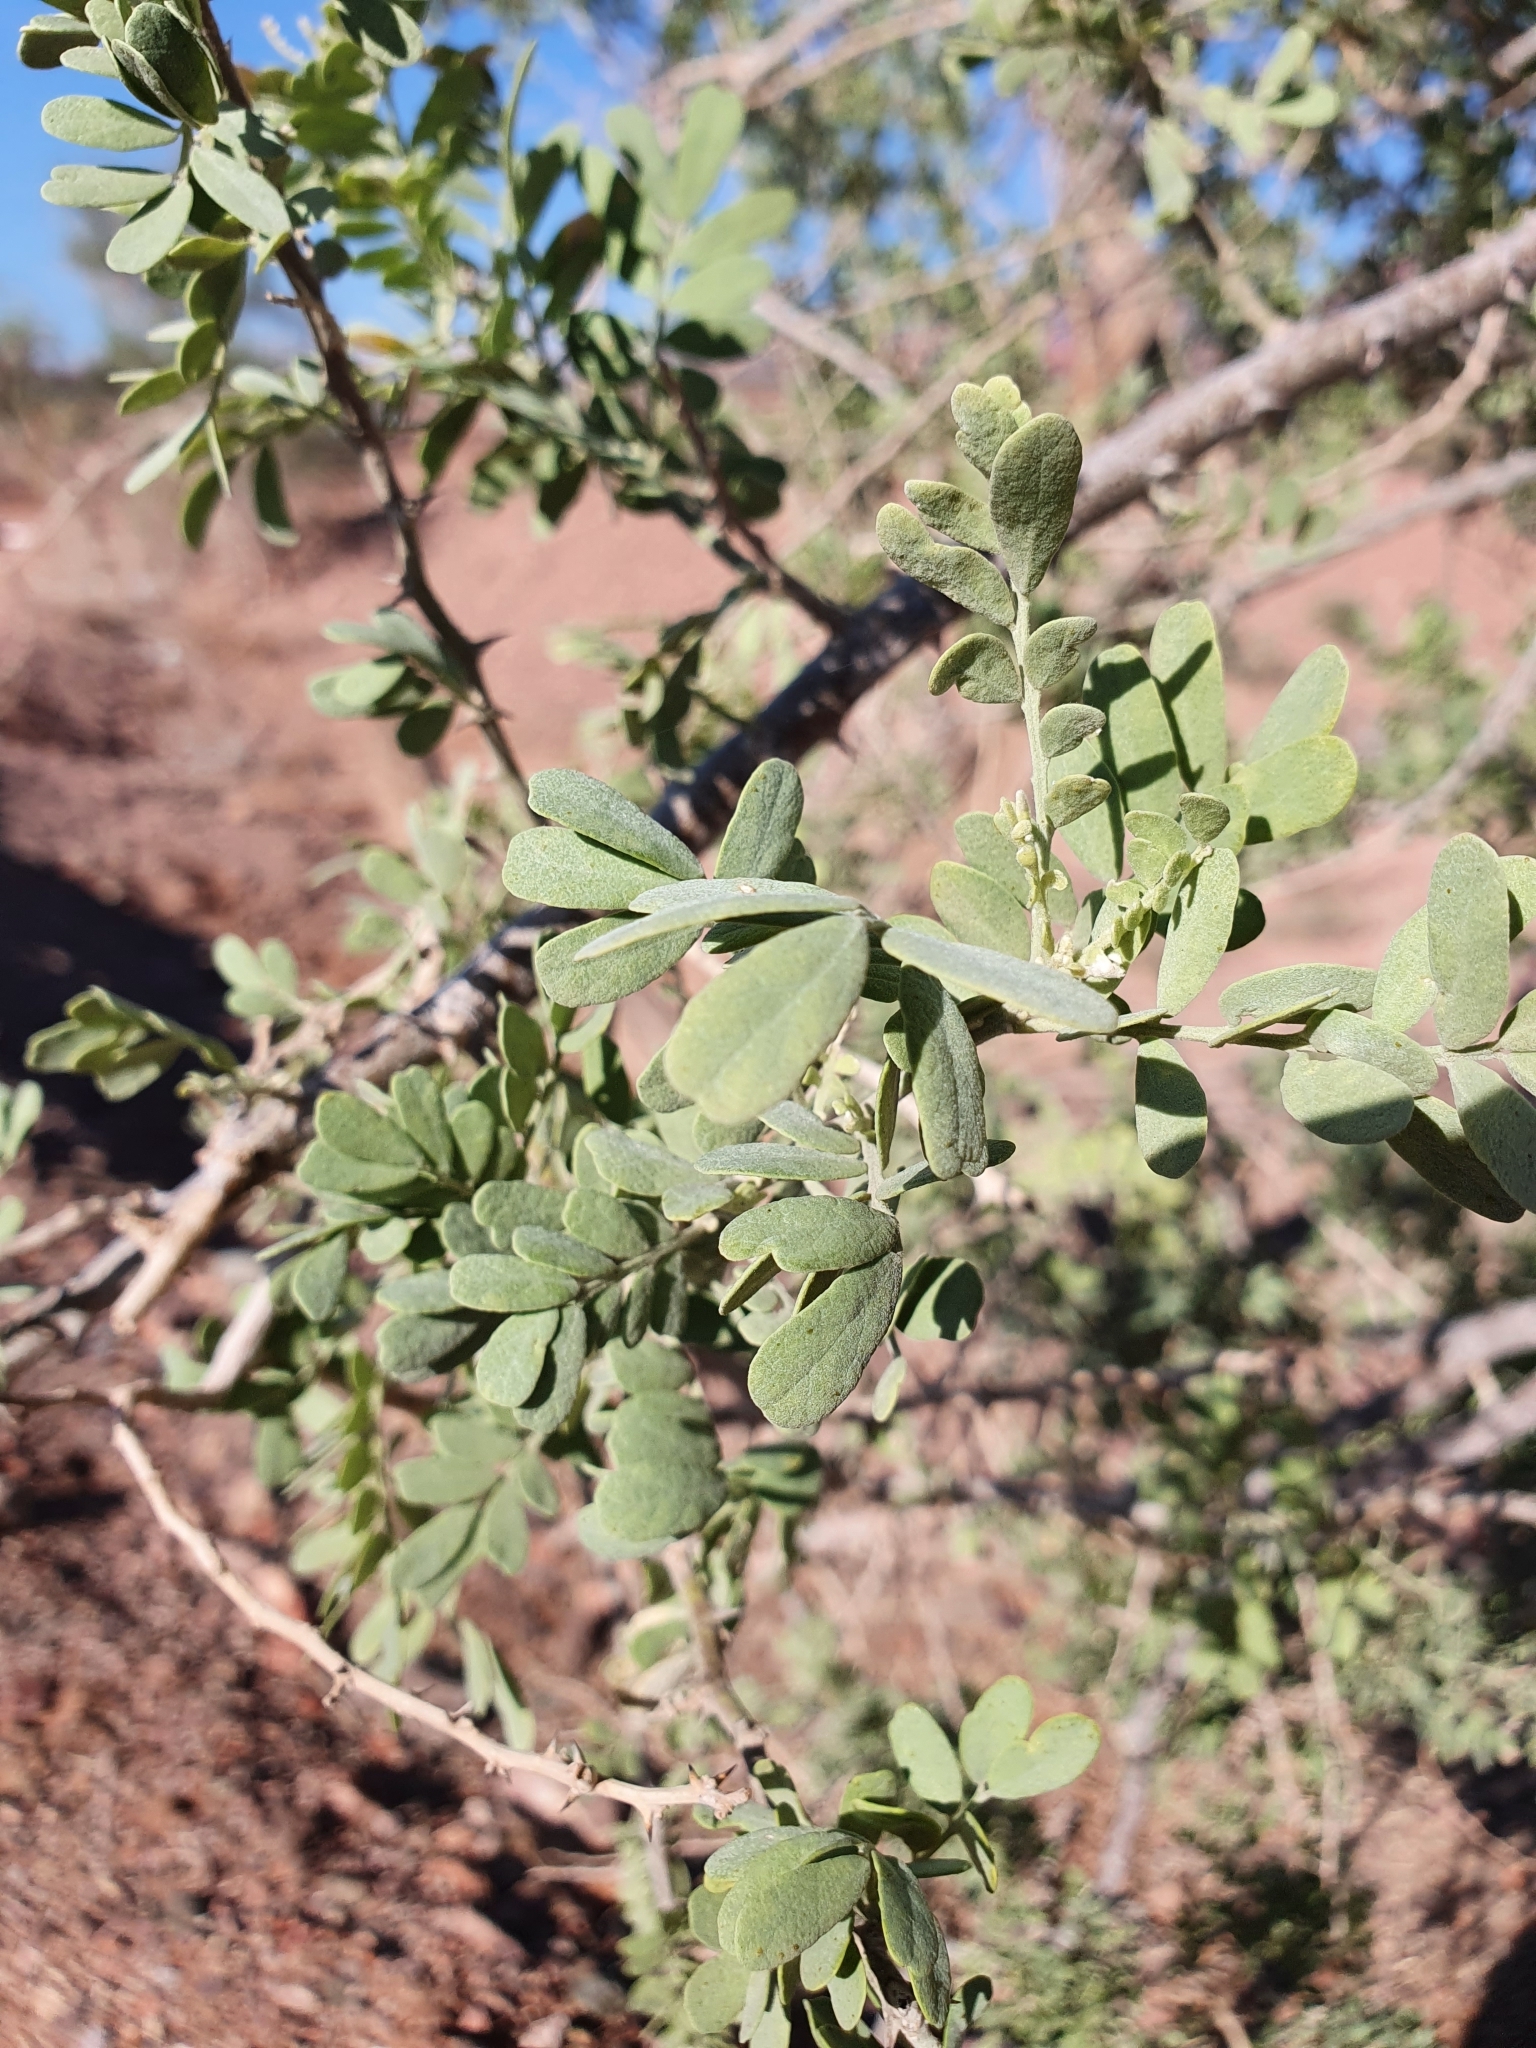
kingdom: Plantae
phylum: Tracheophyta
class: Magnoliopsida
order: Fabales
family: Fabaceae
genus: Olneya
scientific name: Olneya tesota
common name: Desert ironwood
